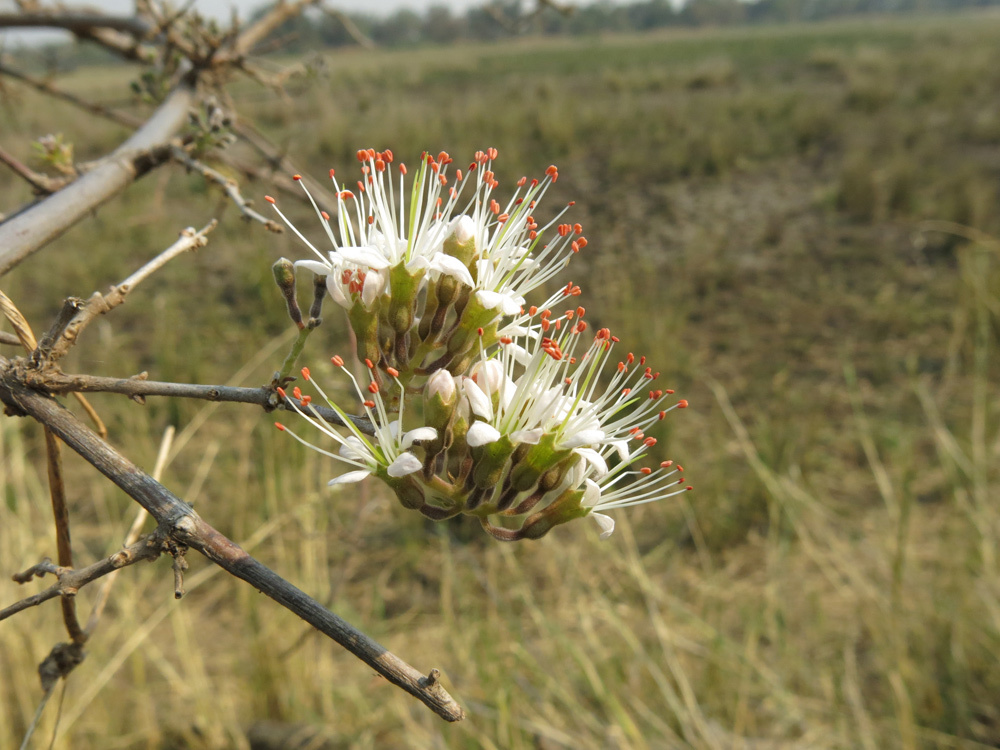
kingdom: Plantae
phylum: Tracheophyta
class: Magnoliopsida
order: Myrtales
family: Combretaceae
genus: Combretum
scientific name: Combretum mossambicense
